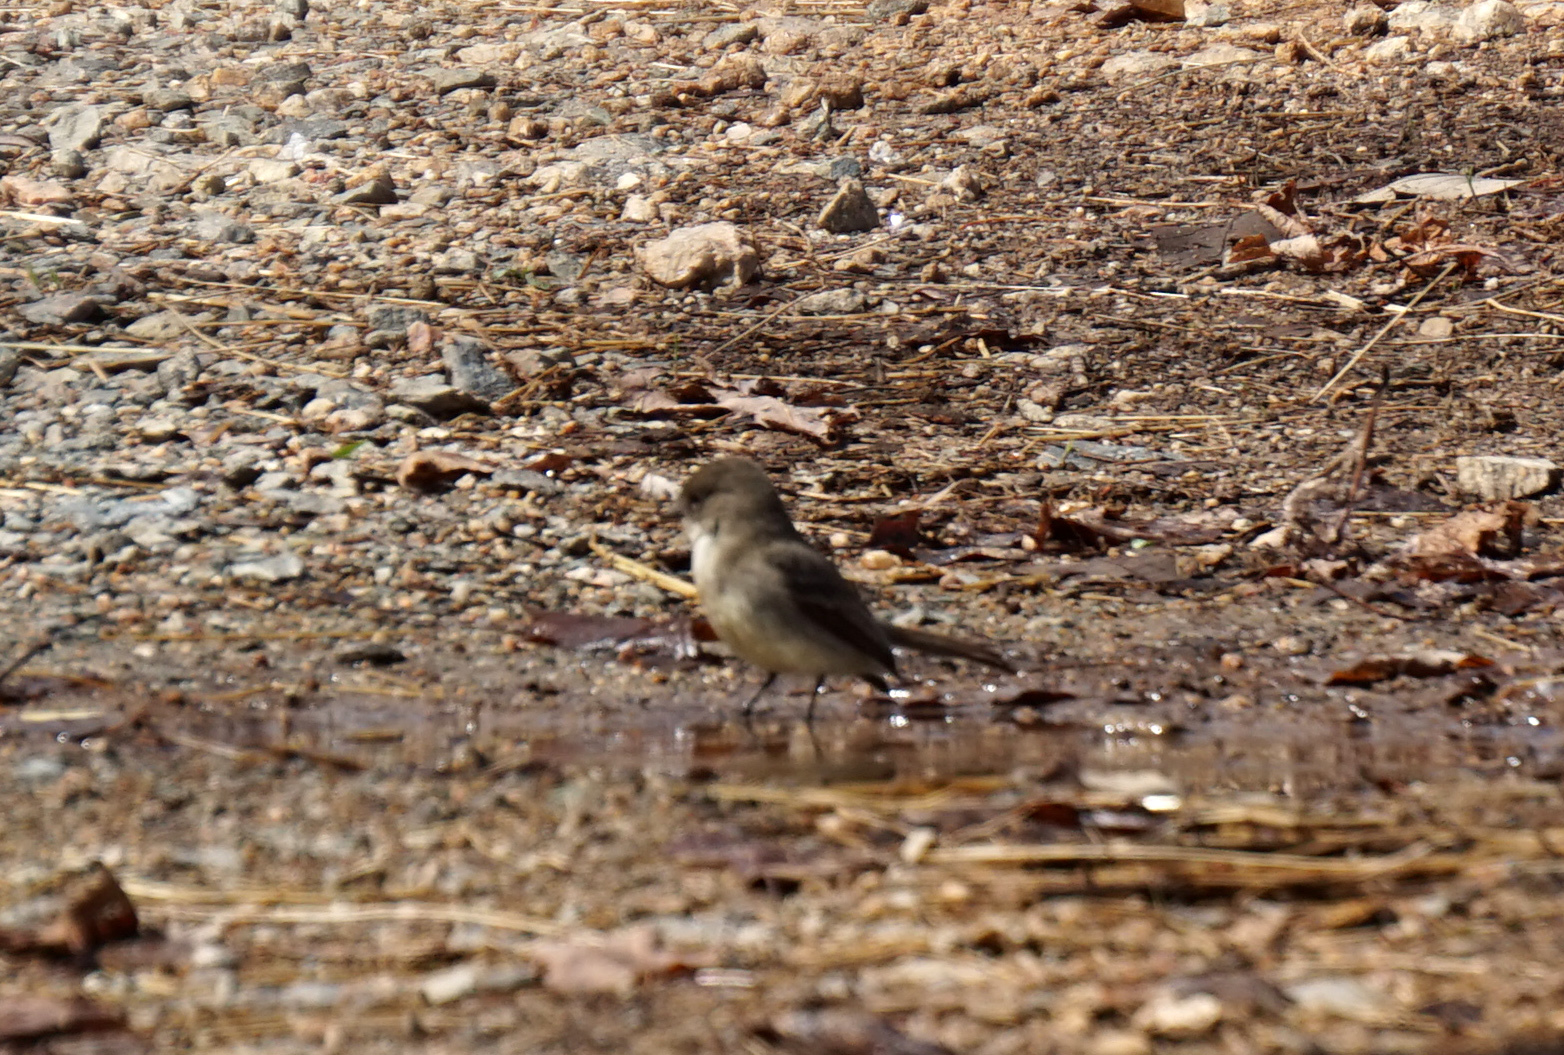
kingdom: Animalia
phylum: Chordata
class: Aves
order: Passeriformes
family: Tyrannidae
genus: Sayornis
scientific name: Sayornis phoebe
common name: Eastern phoebe
